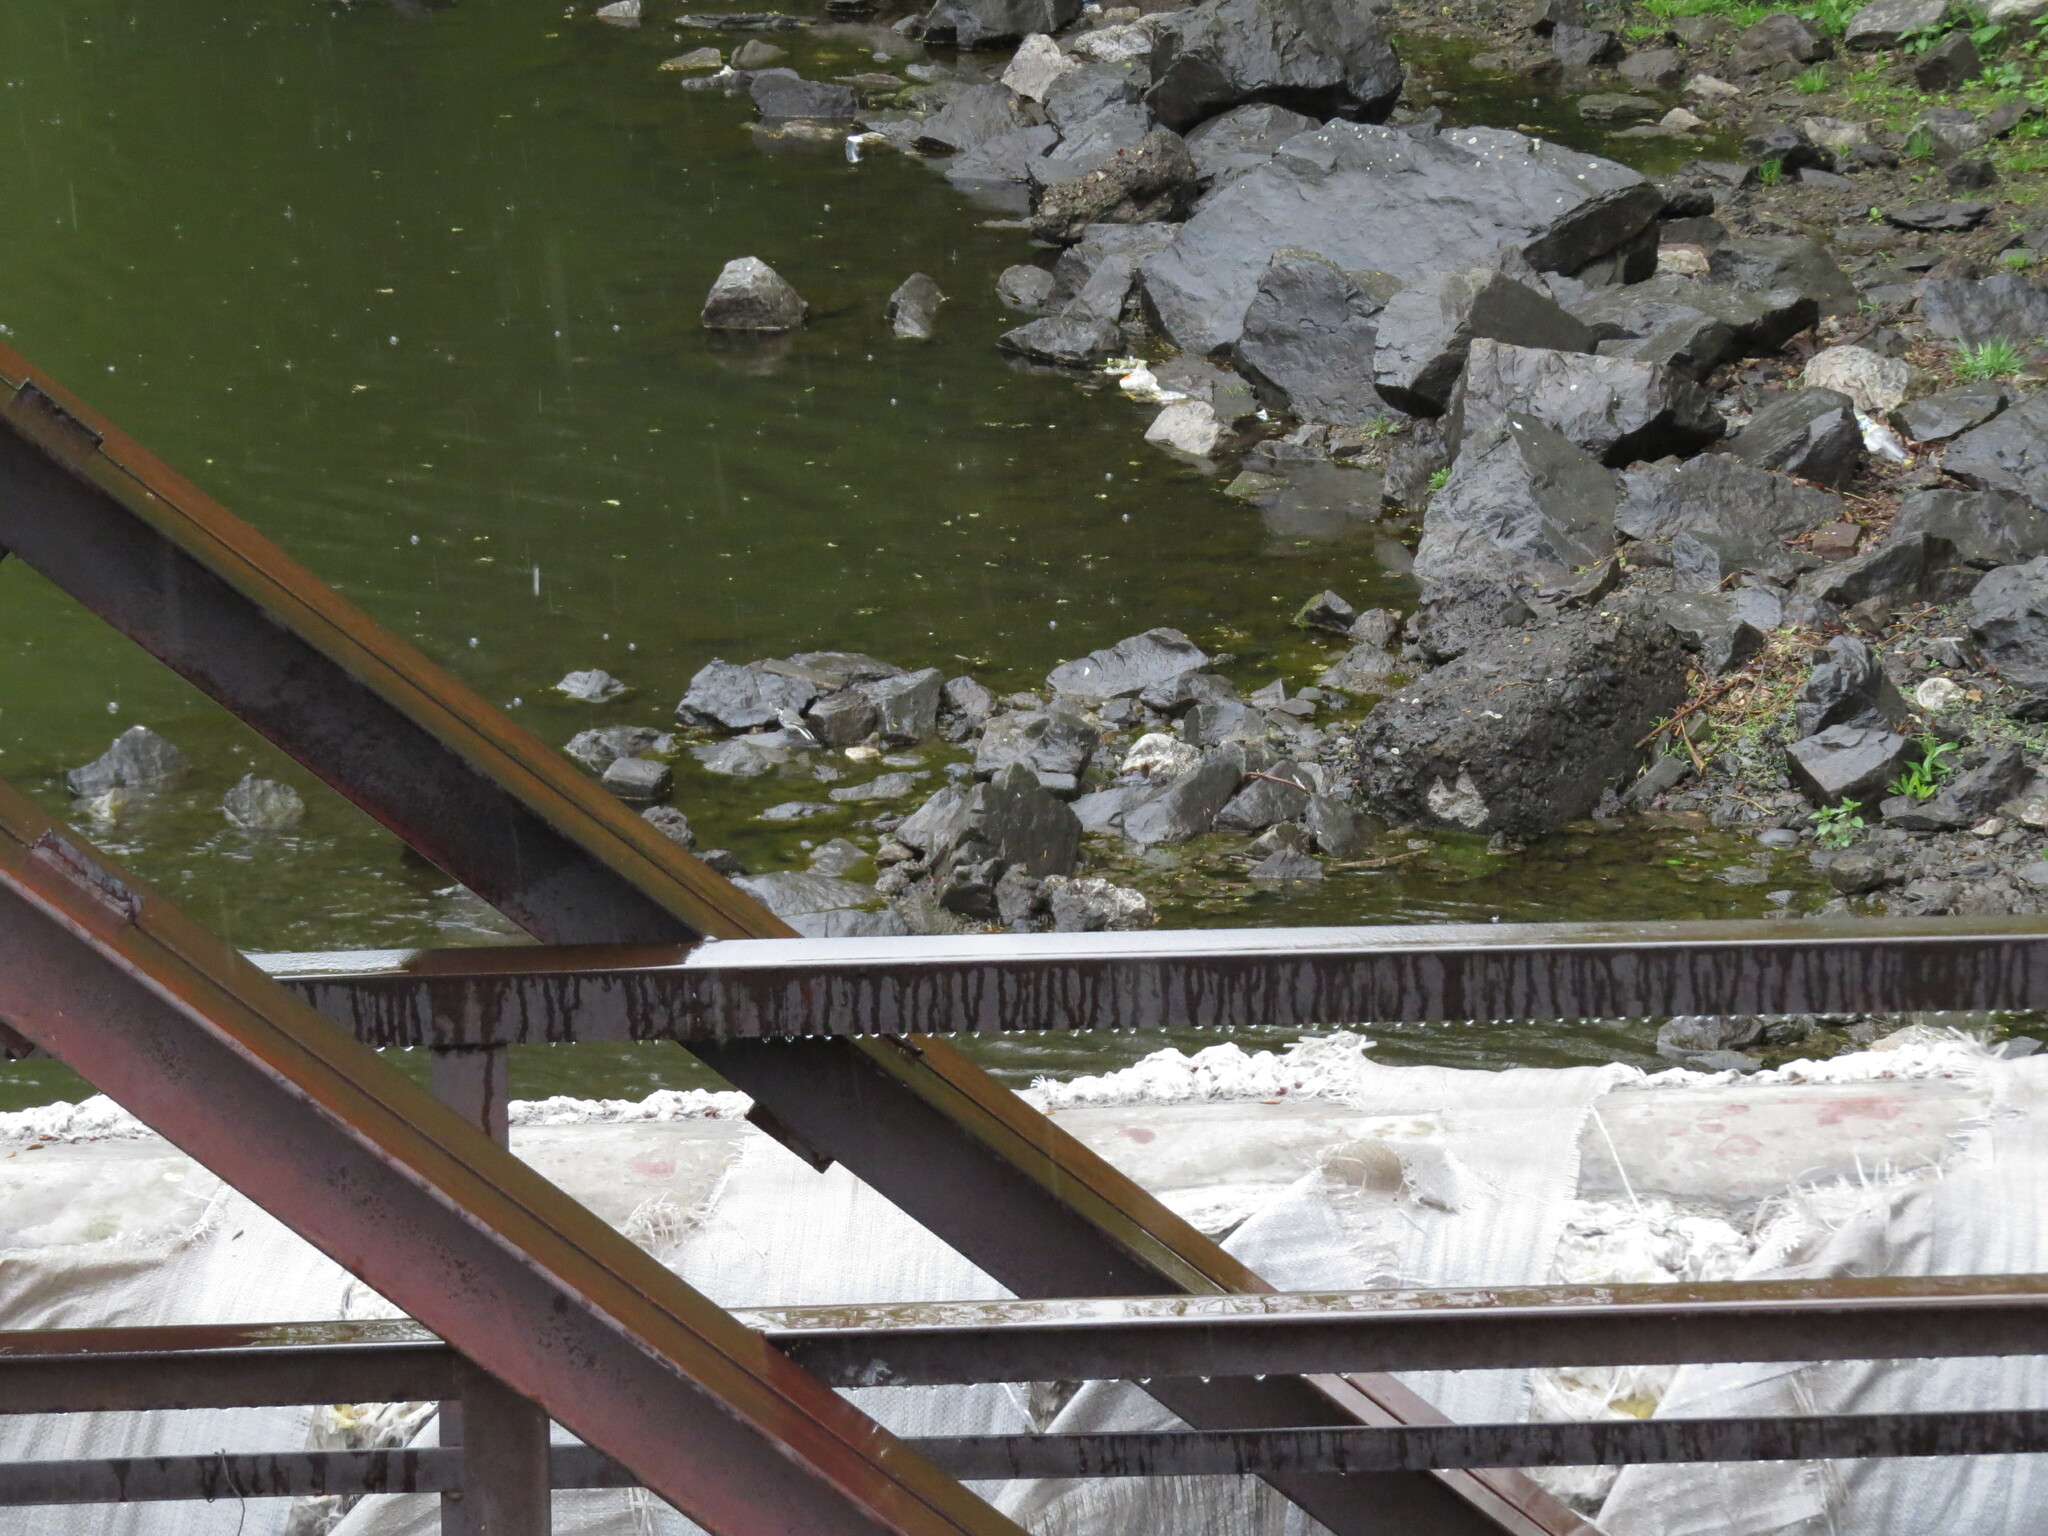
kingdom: Animalia
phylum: Chordata
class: Aves
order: Passeriformes
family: Motacillidae
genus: Motacilla
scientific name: Motacilla alba
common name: White wagtail
